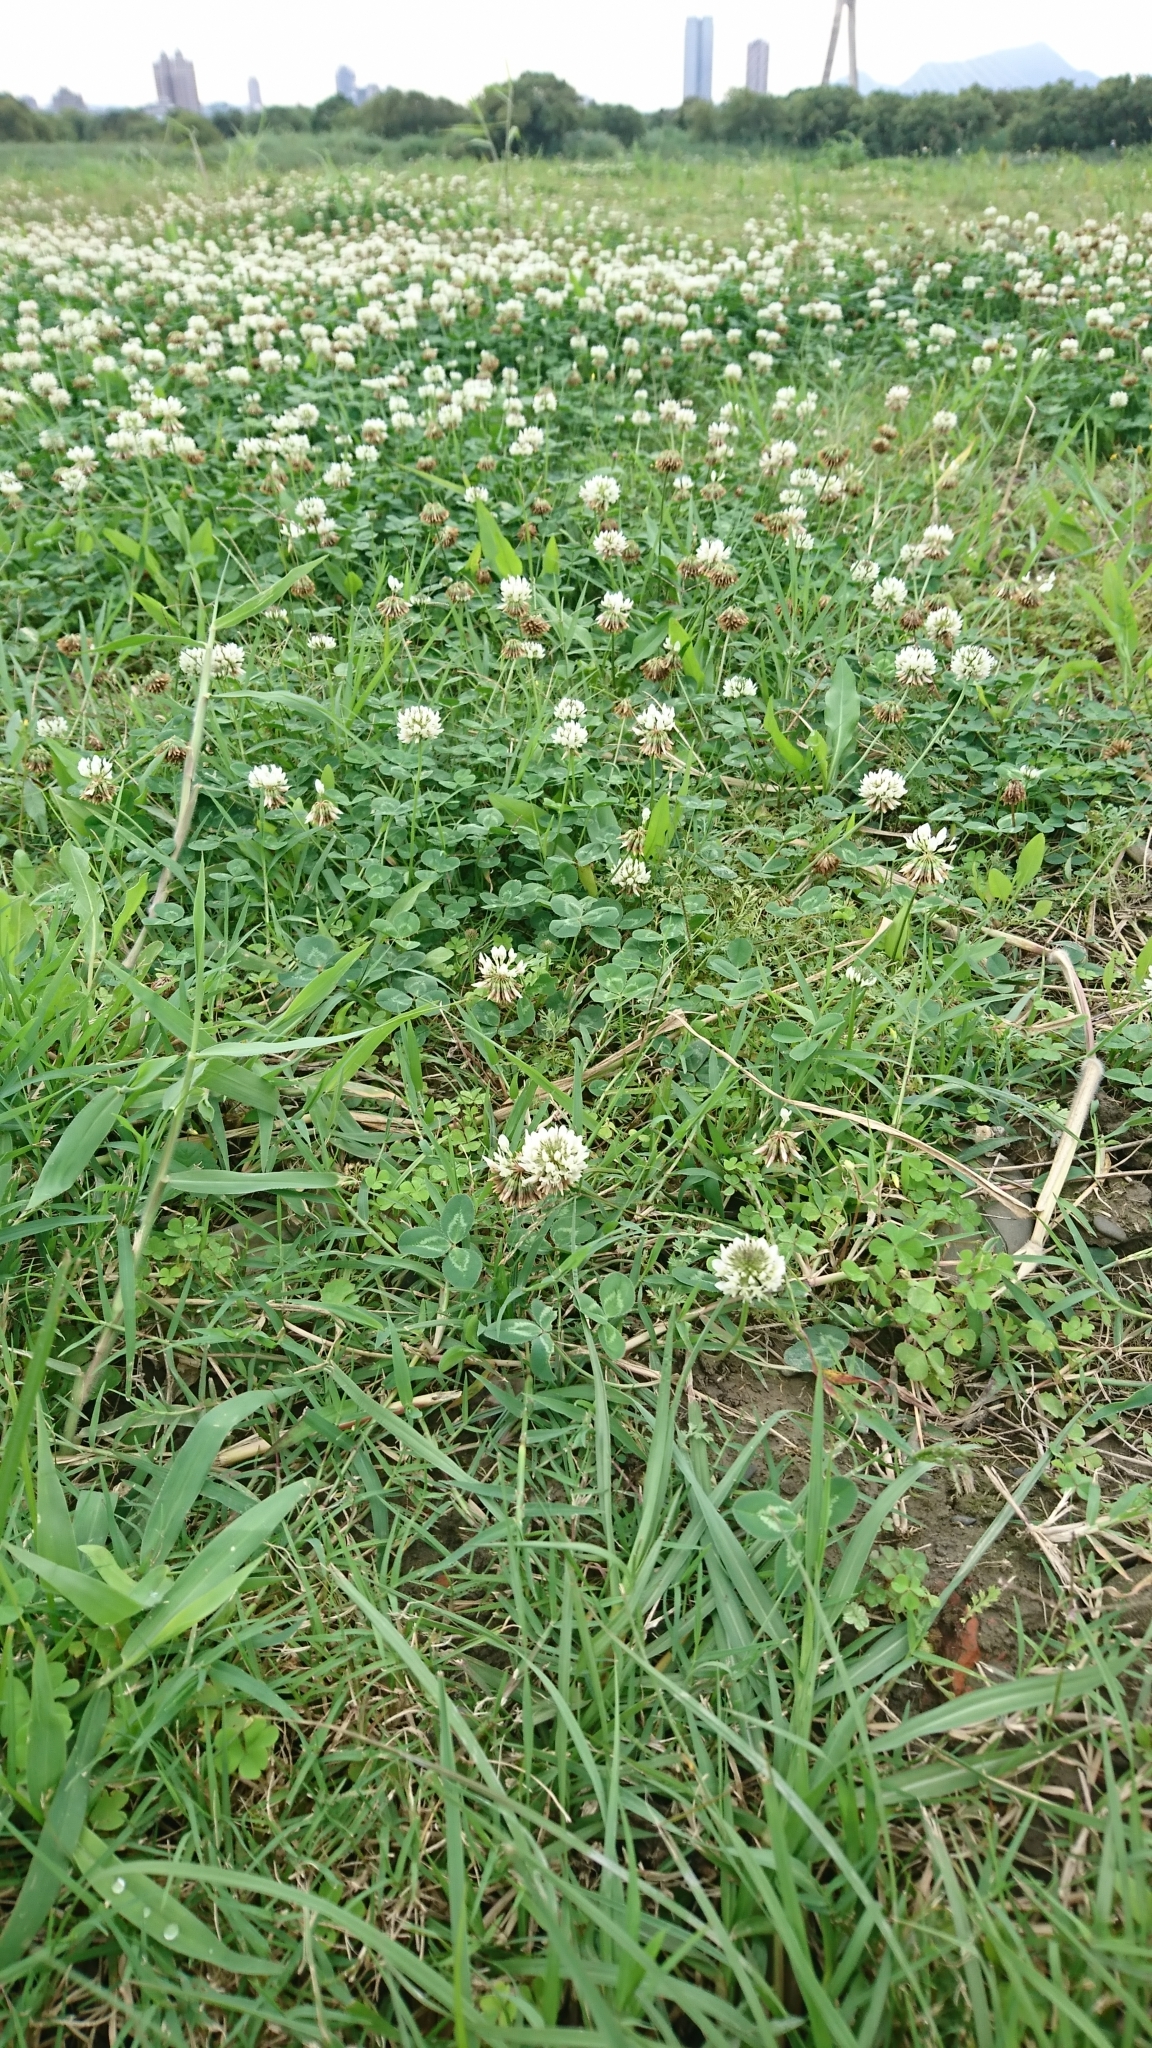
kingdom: Plantae
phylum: Tracheophyta
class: Magnoliopsida
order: Fabales
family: Fabaceae
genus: Trifolium
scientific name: Trifolium repens
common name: White clover
